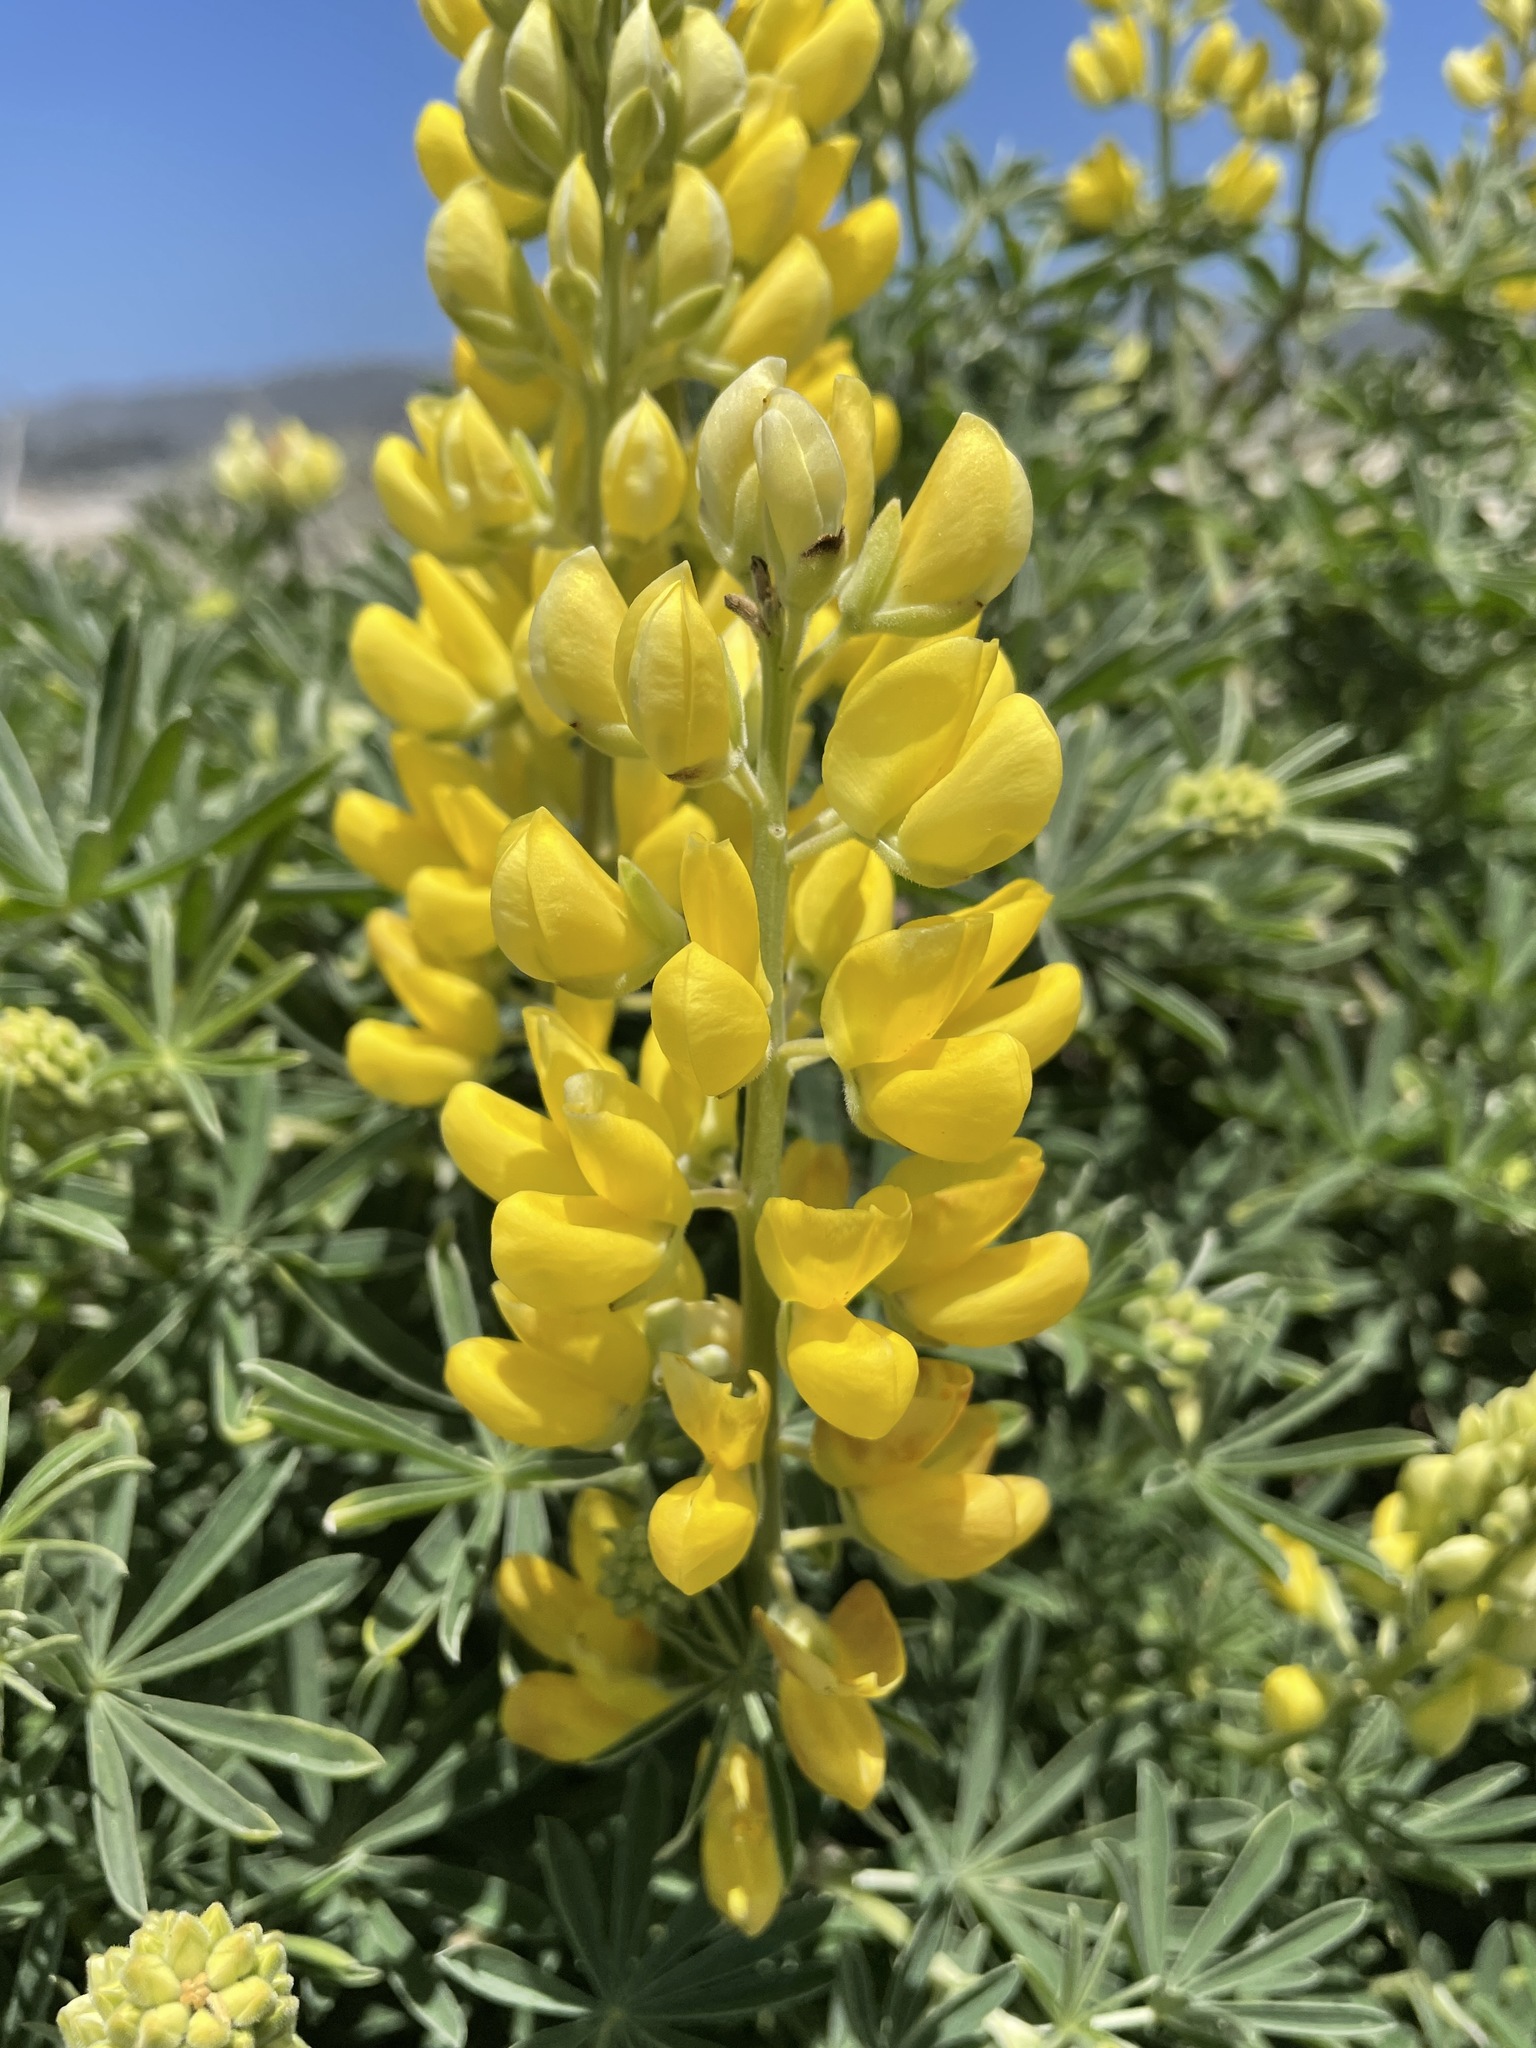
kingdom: Plantae
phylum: Tracheophyta
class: Magnoliopsida
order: Fabales
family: Fabaceae
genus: Lupinus
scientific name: Lupinus arboreus
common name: Yellow bush lupine
